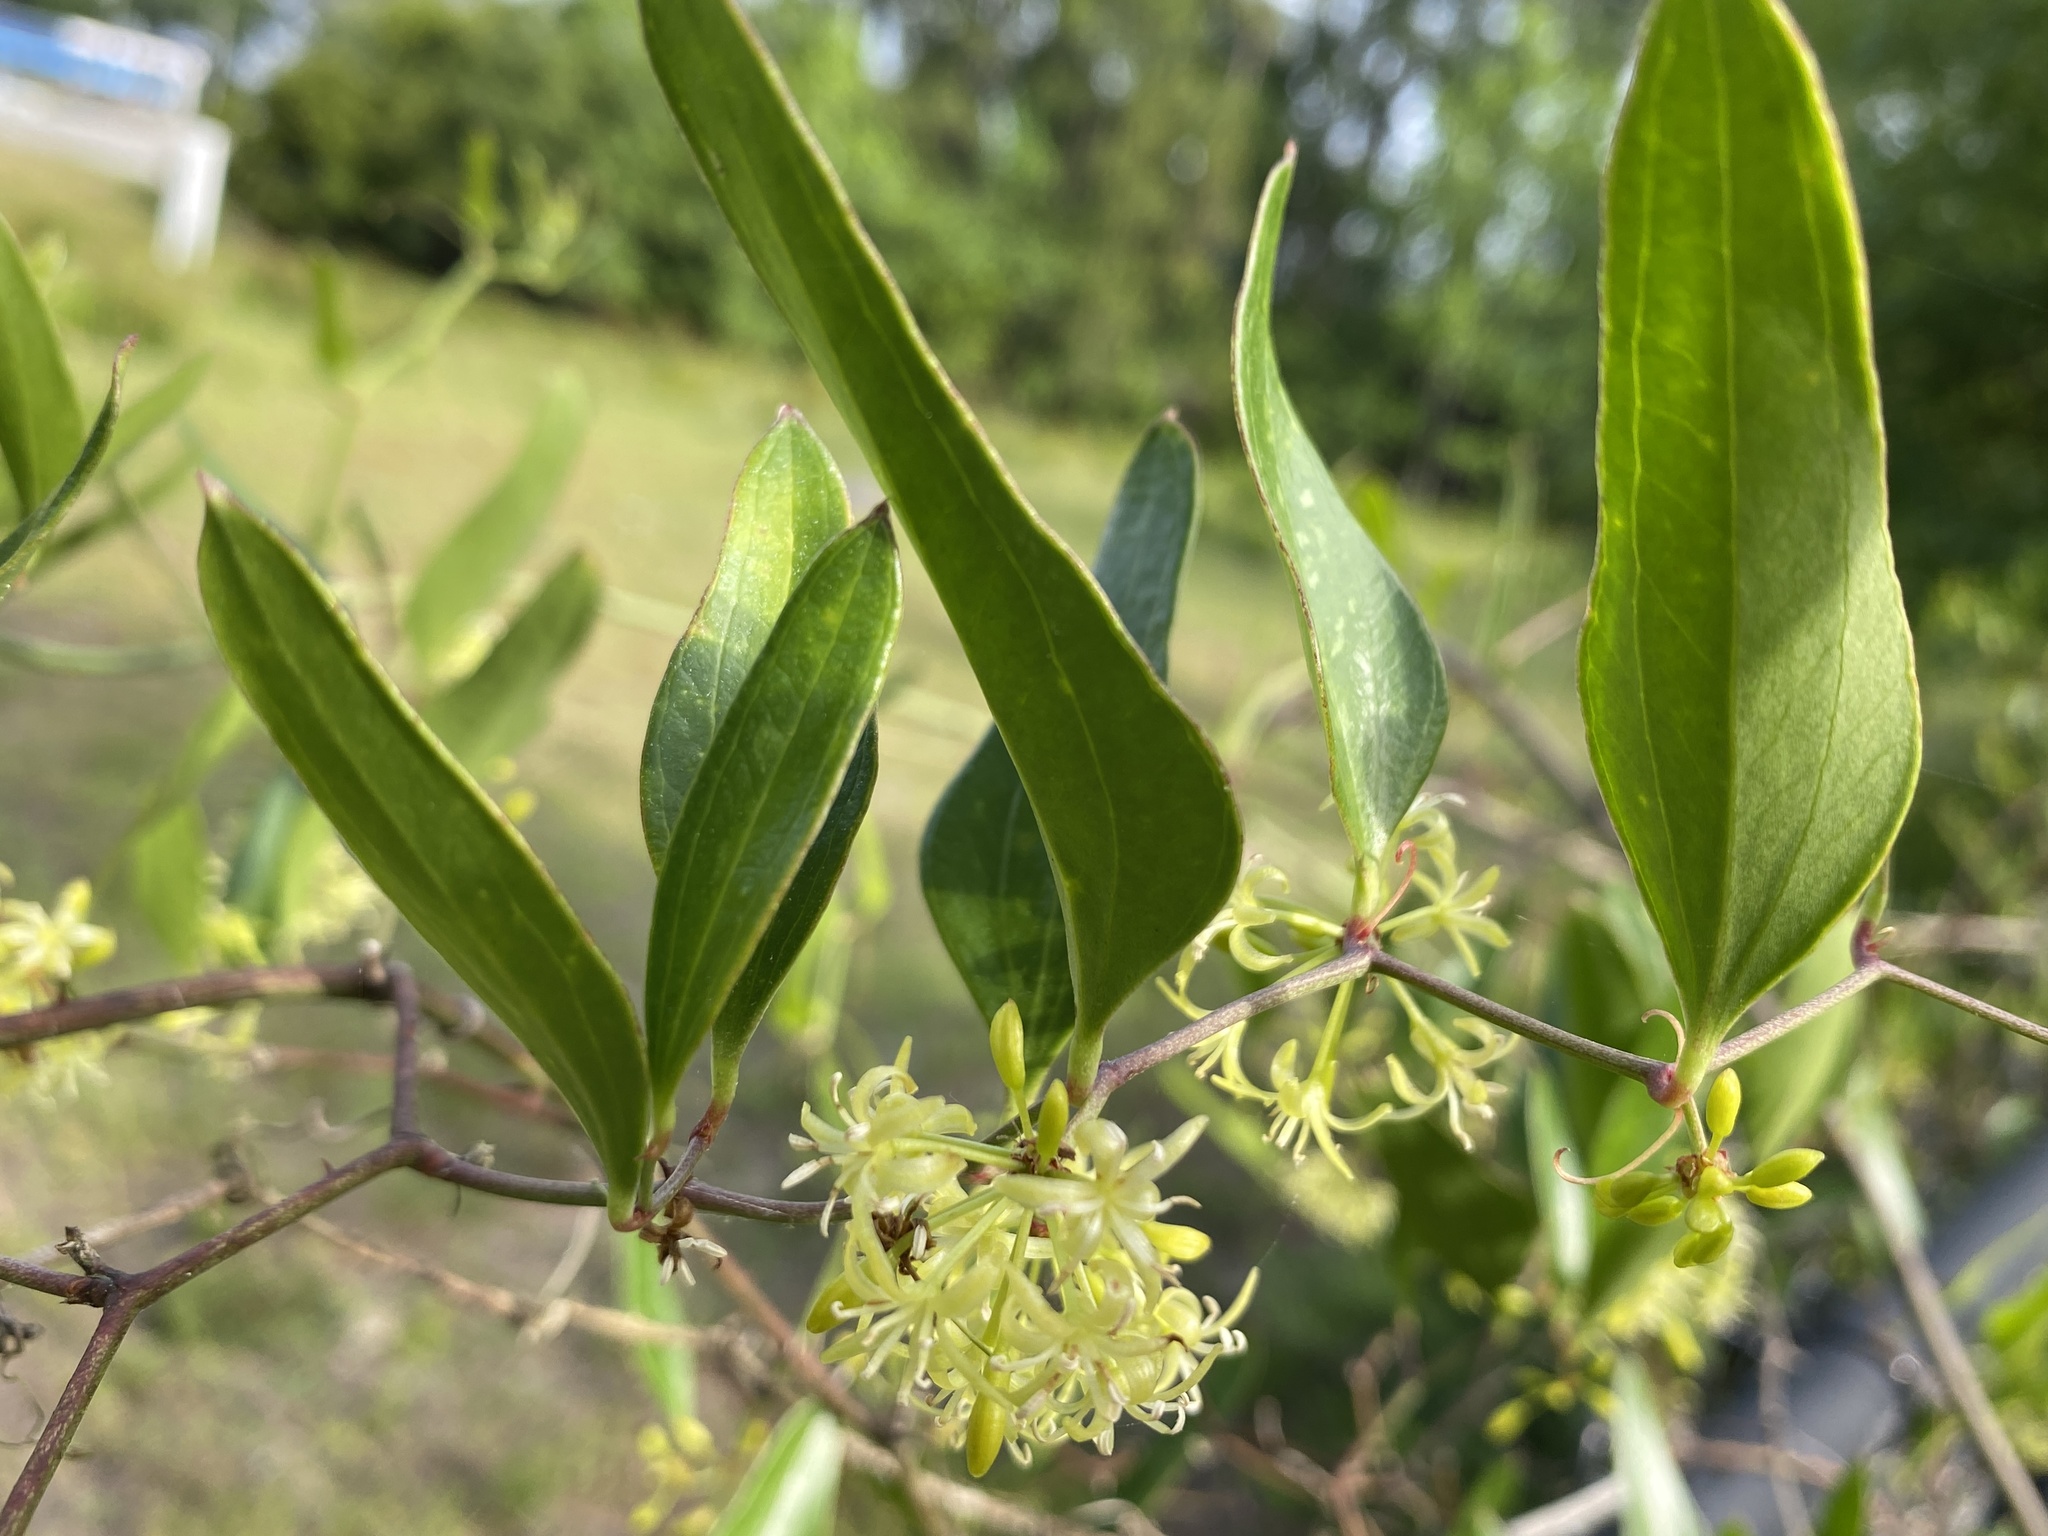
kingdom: Plantae
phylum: Tracheophyta
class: Liliopsida
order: Liliales
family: Smilacaceae
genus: Smilax
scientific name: Smilax auriculata
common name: Wild bamboo
